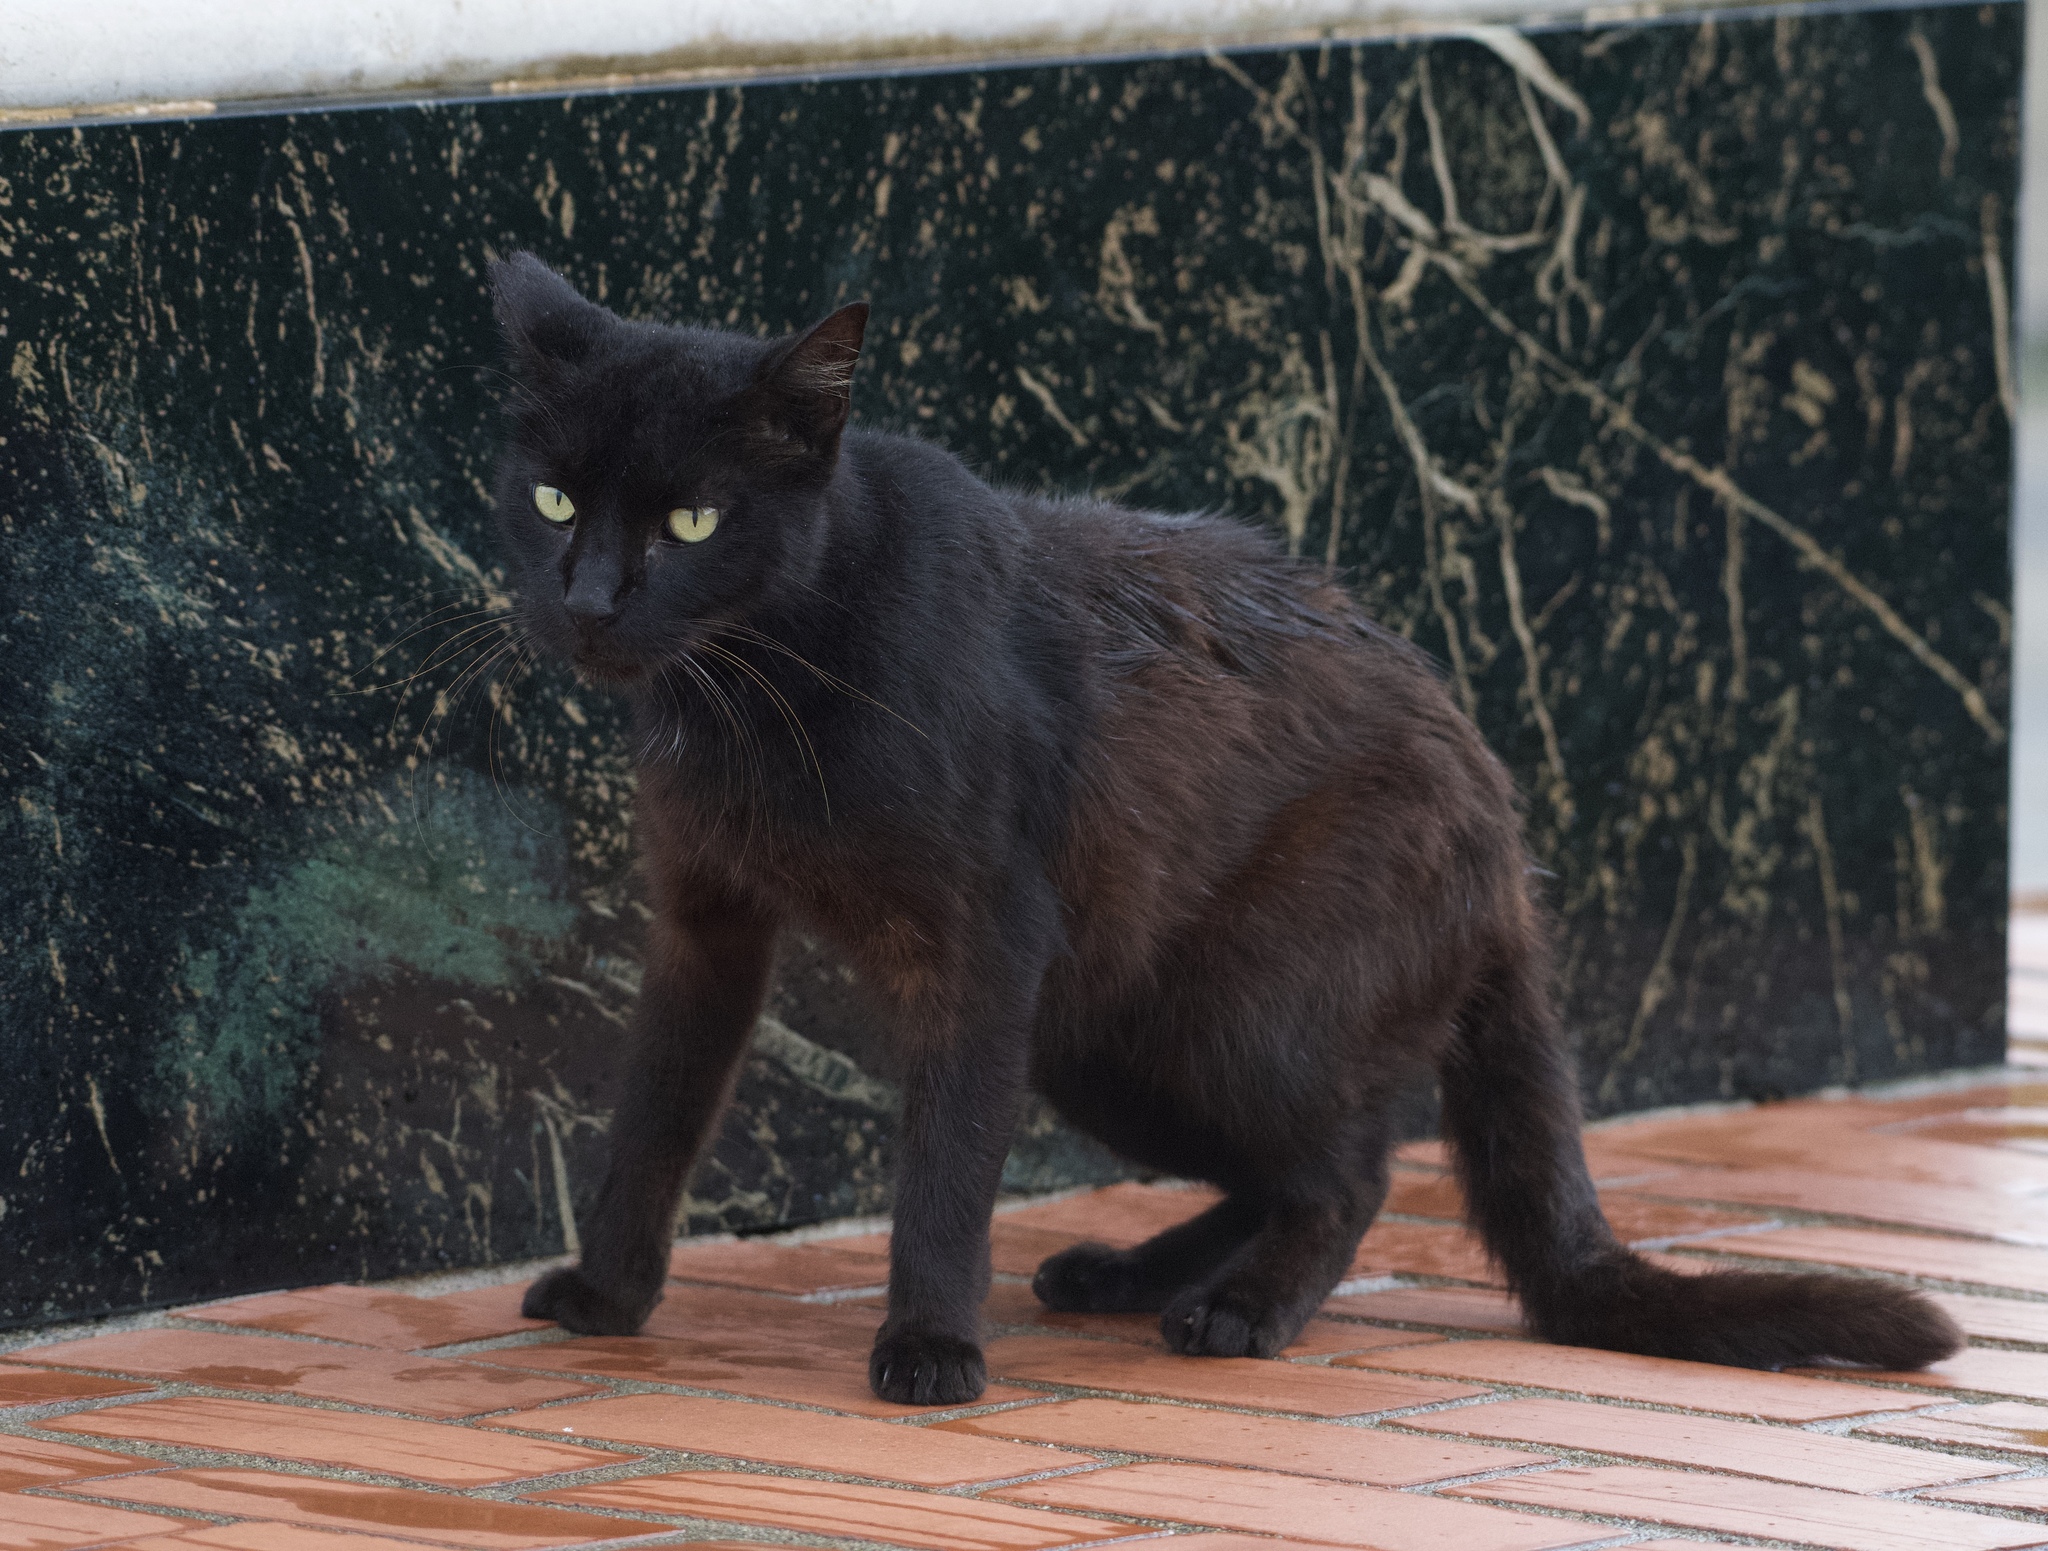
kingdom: Animalia
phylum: Chordata
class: Mammalia
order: Carnivora
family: Felidae
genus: Felis
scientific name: Felis catus
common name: Domestic cat
